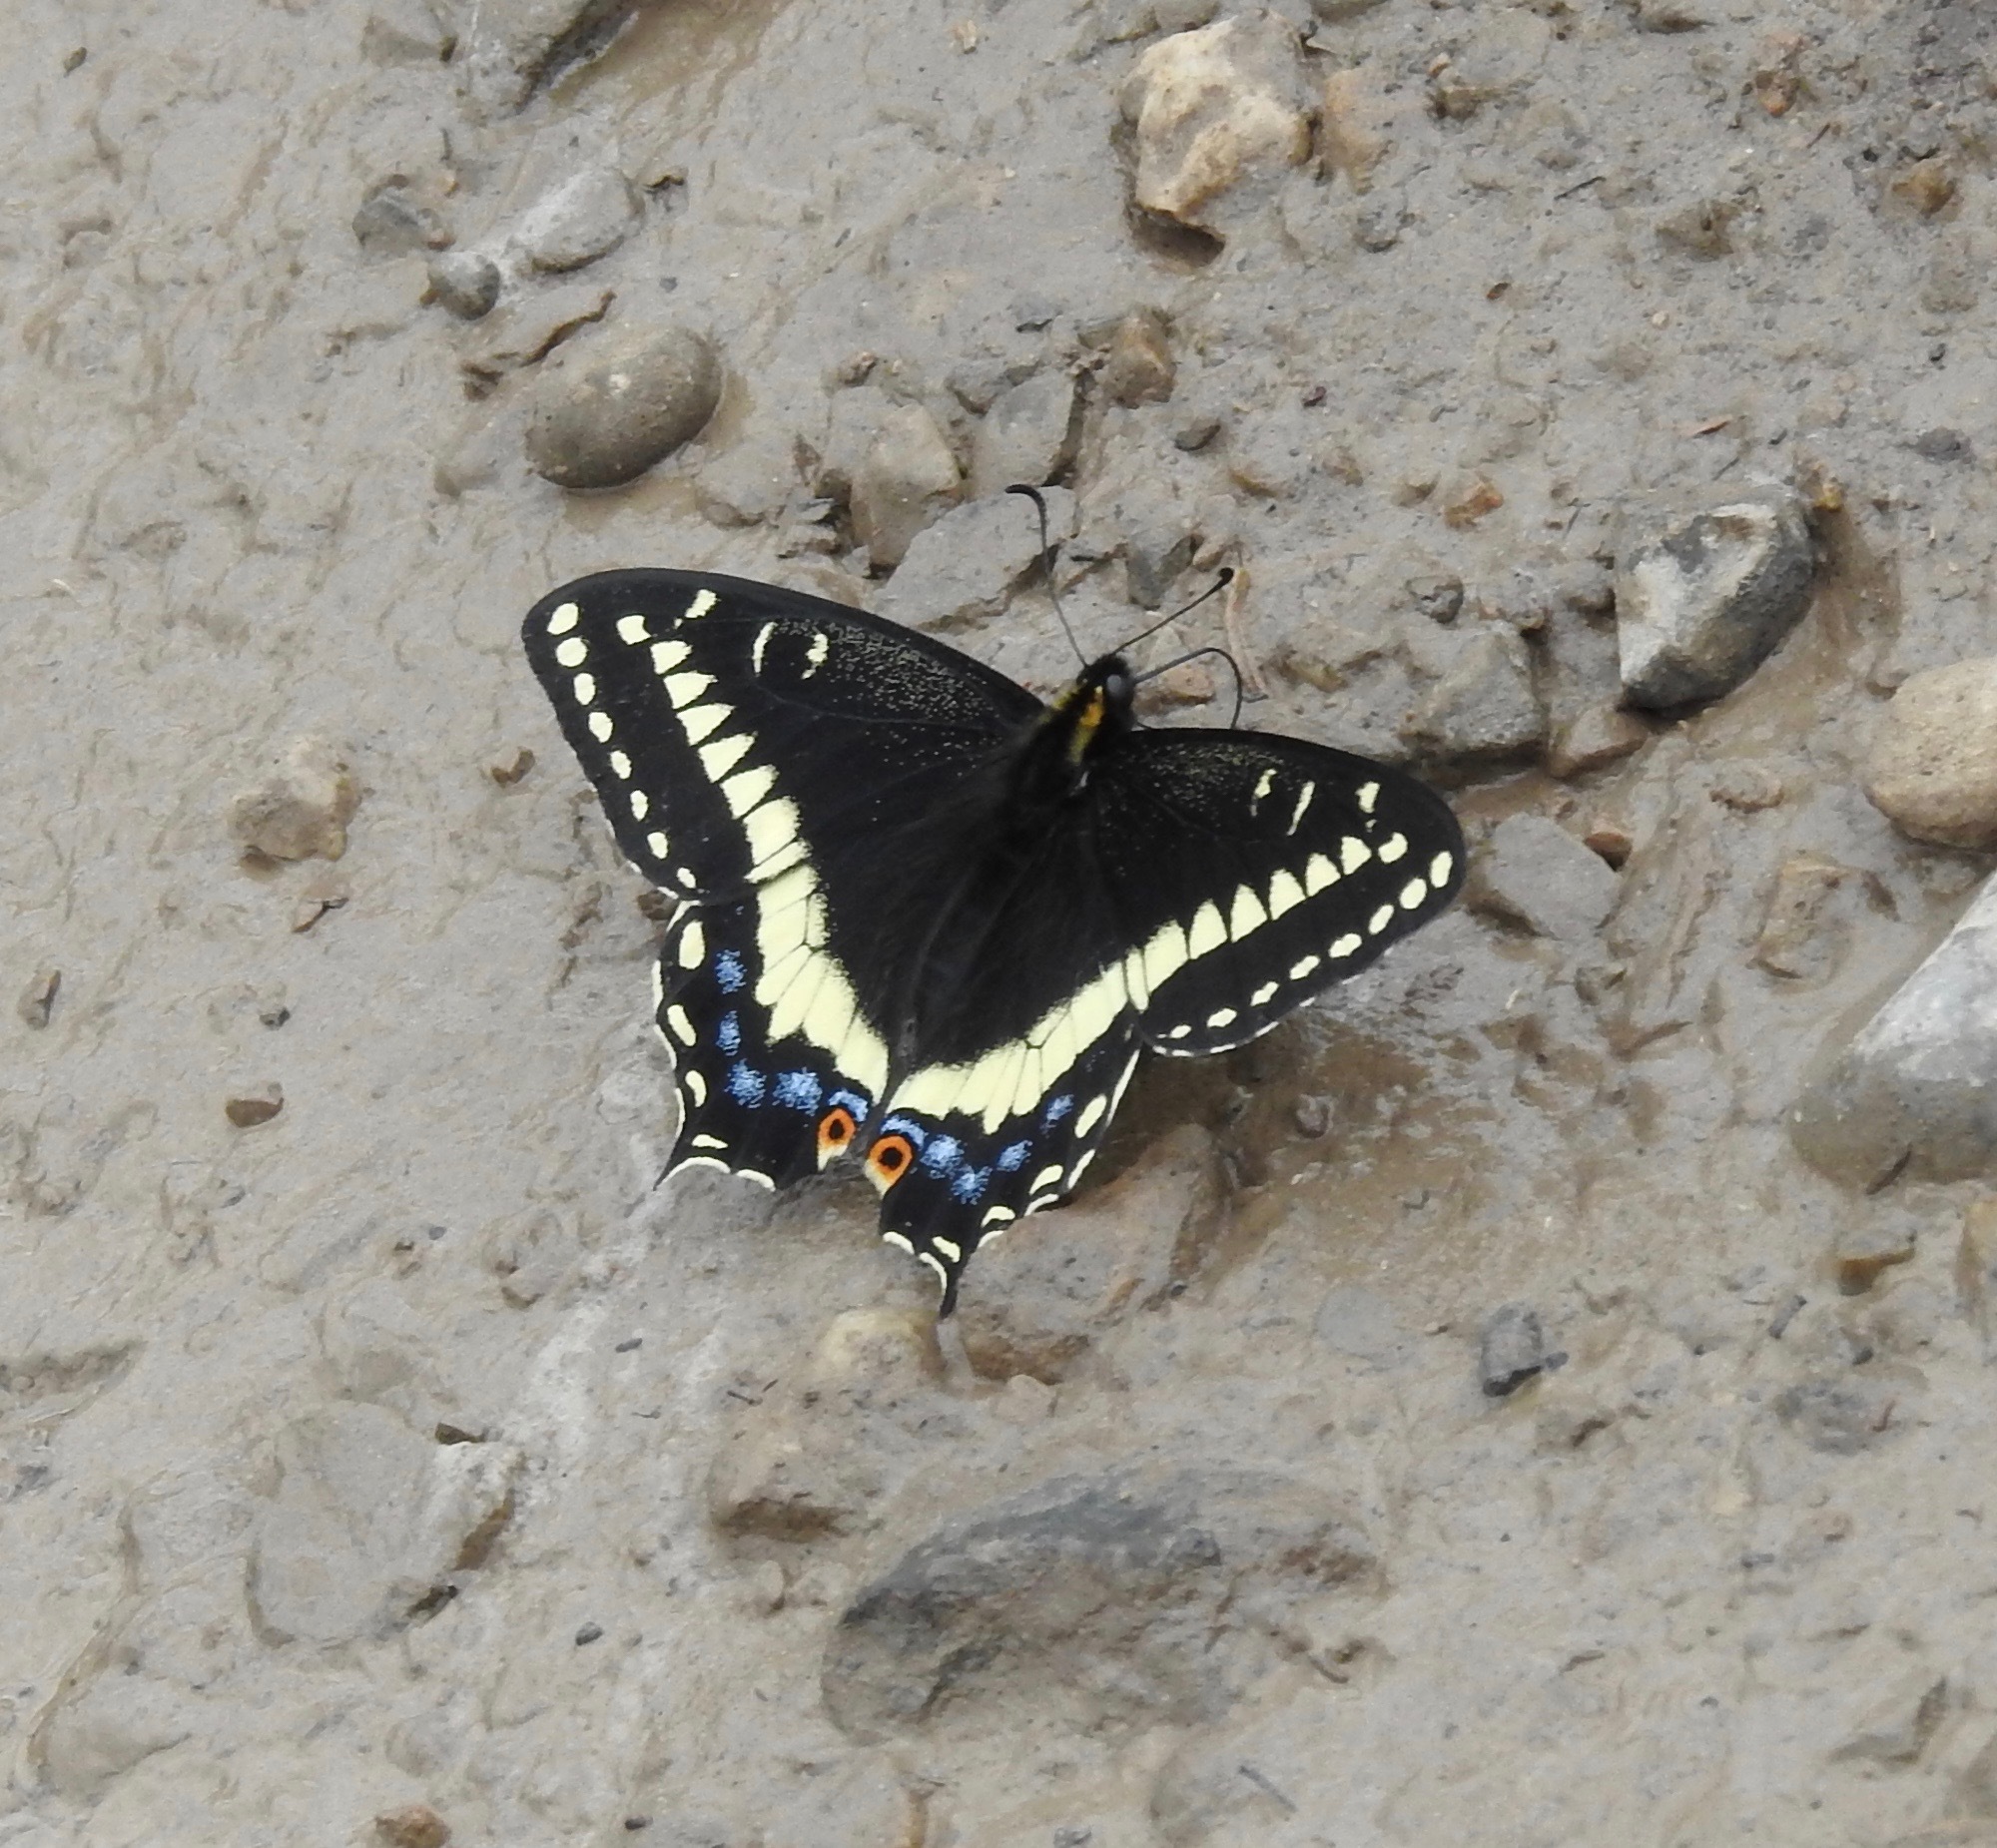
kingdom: Animalia
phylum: Arthropoda
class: Insecta
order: Lepidoptera
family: Papilionidae
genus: Papilio
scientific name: Papilio indra
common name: Cliff swallowtail
